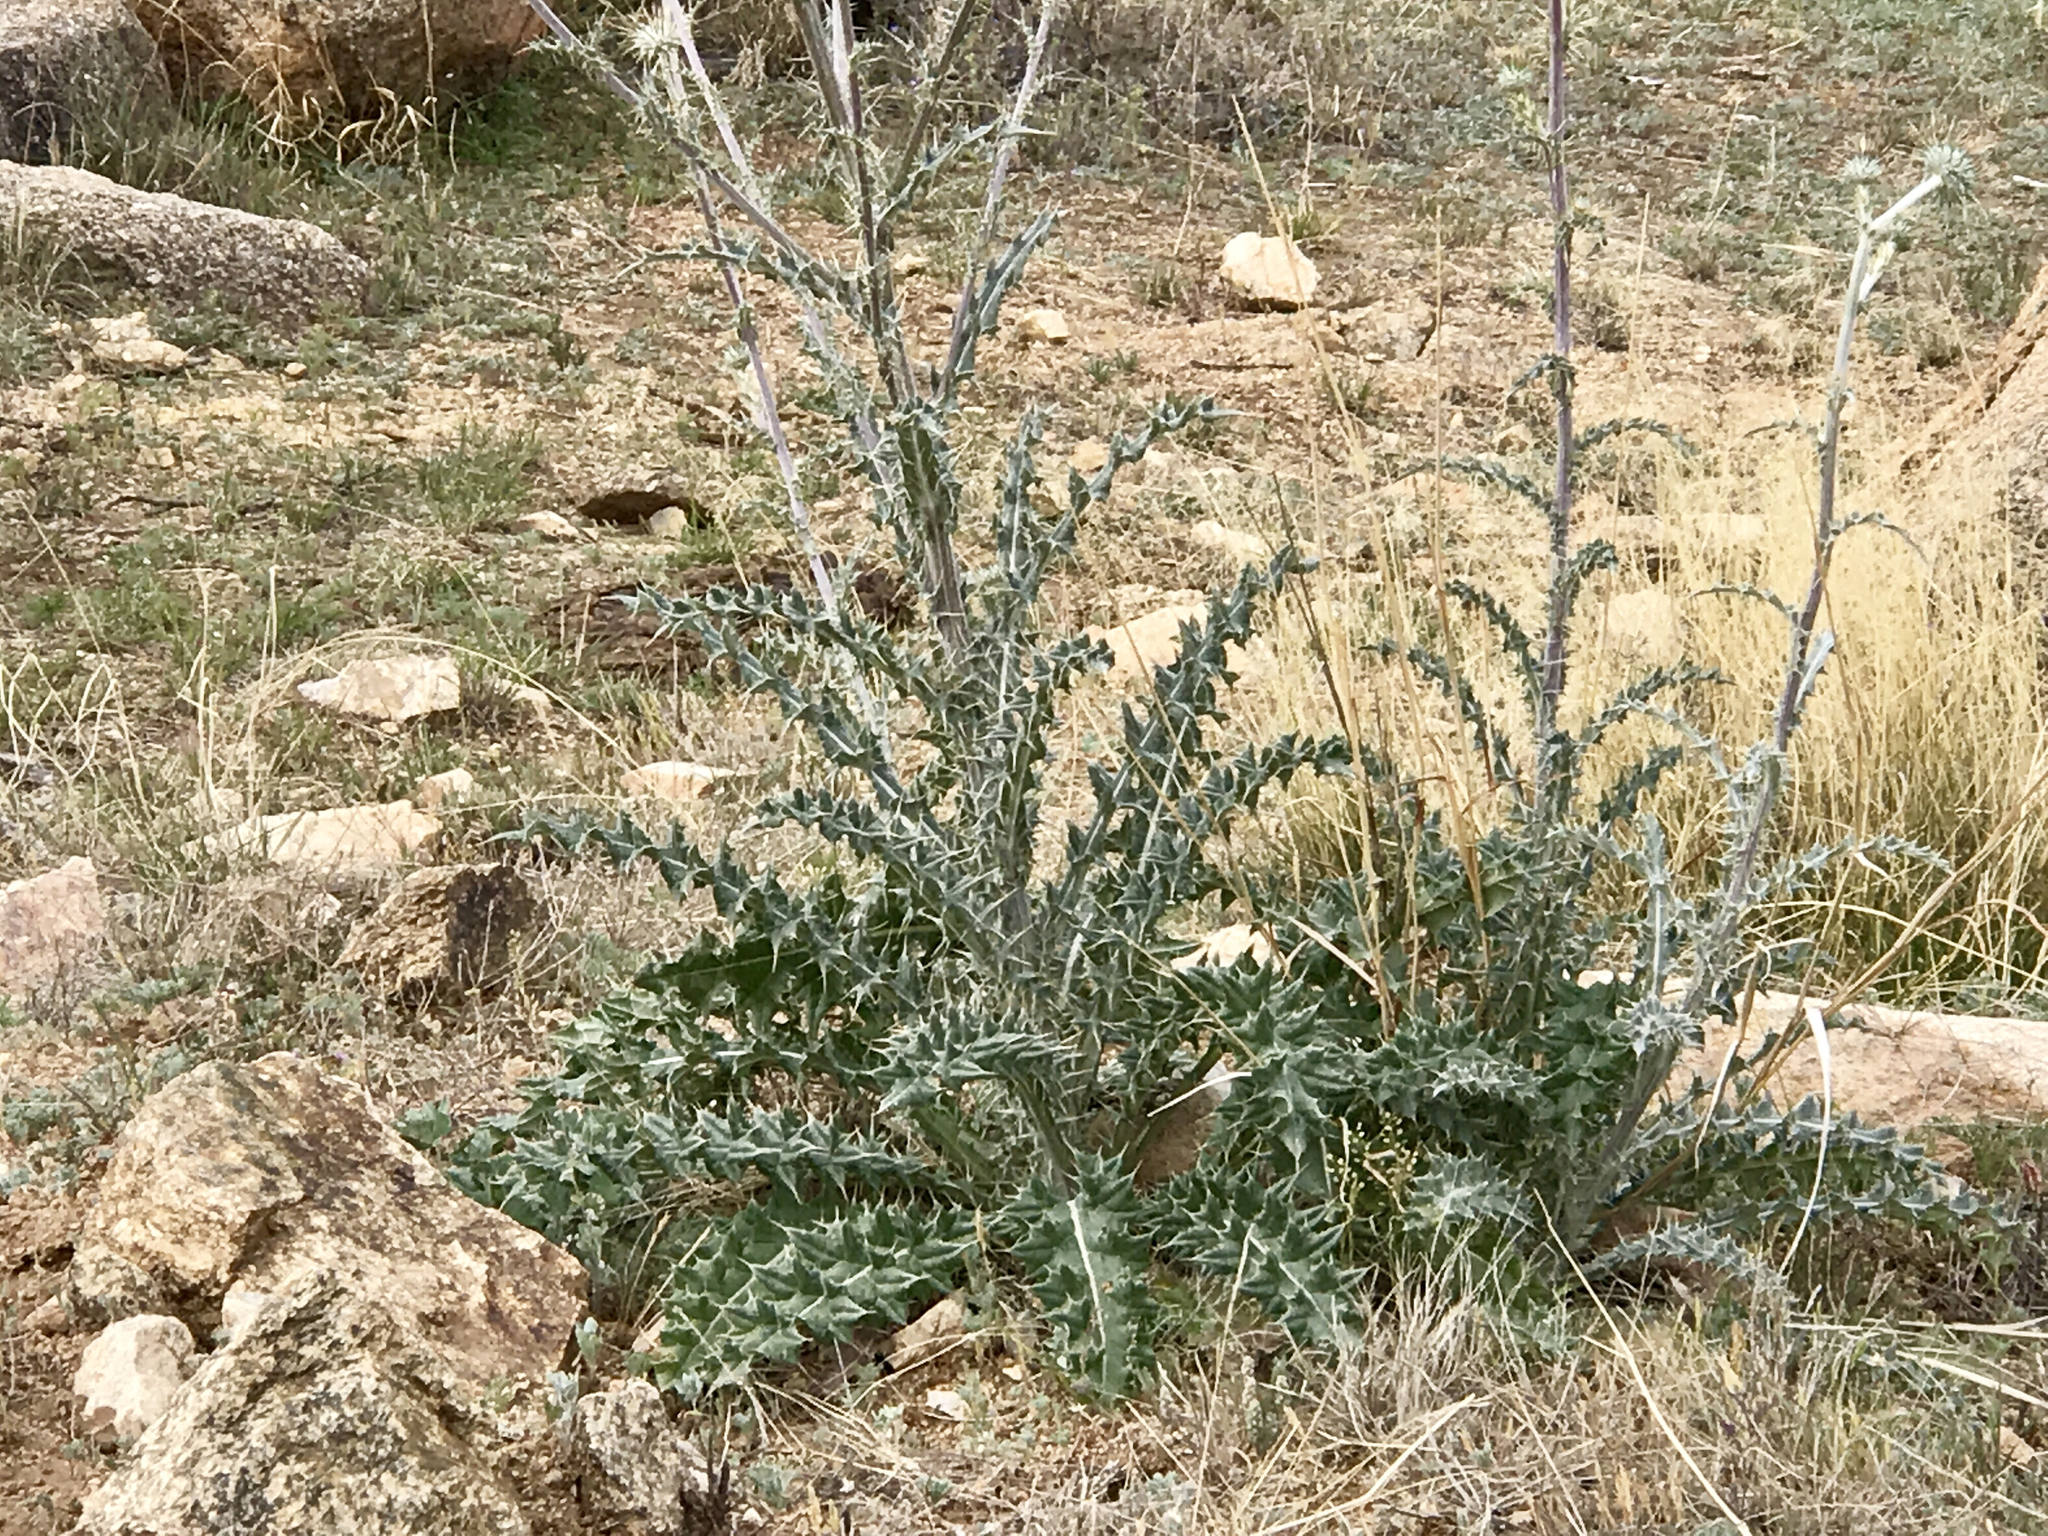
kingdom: Plantae
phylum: Tracheophyta
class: Magnoliopsida
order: Asterales
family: Asteraceae
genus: Cirsium
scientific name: Cirsium neomexicanum
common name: New mexico thistle
